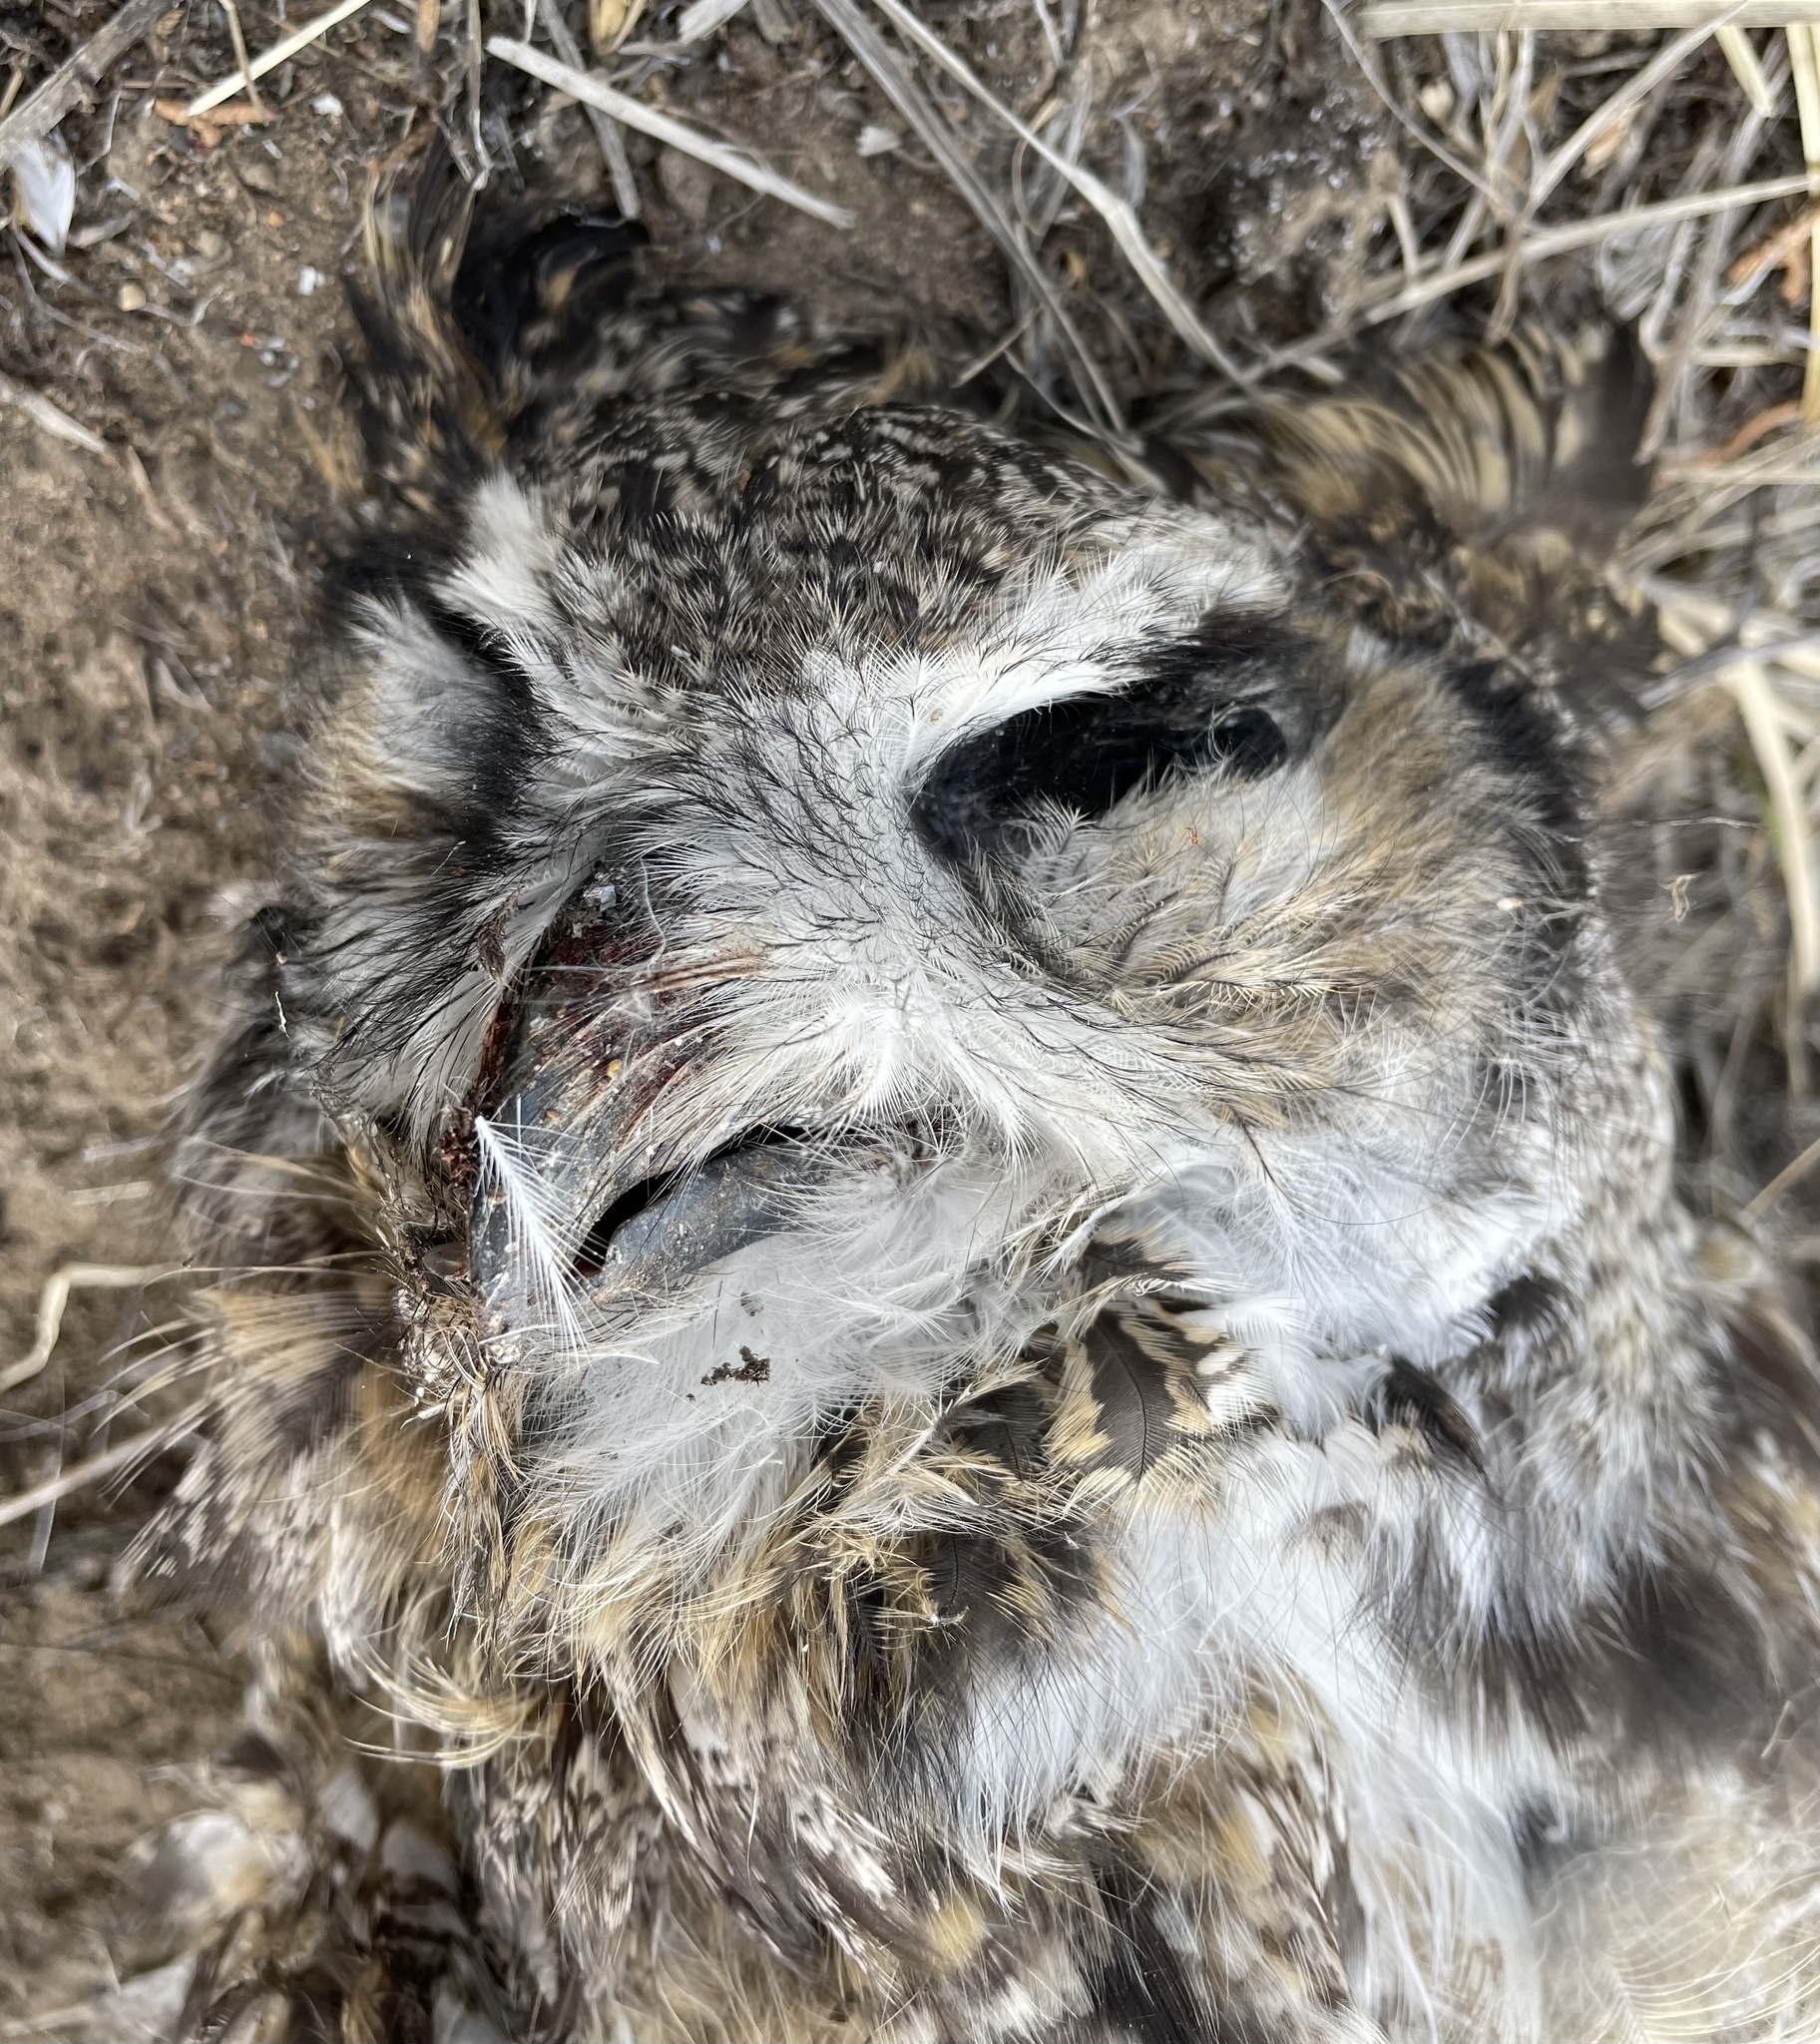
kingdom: Animalia
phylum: Chordata
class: Aves
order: Strigiformes
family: Strigidae
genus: Bubo
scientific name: Bubo virginianus
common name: Great horned owl
